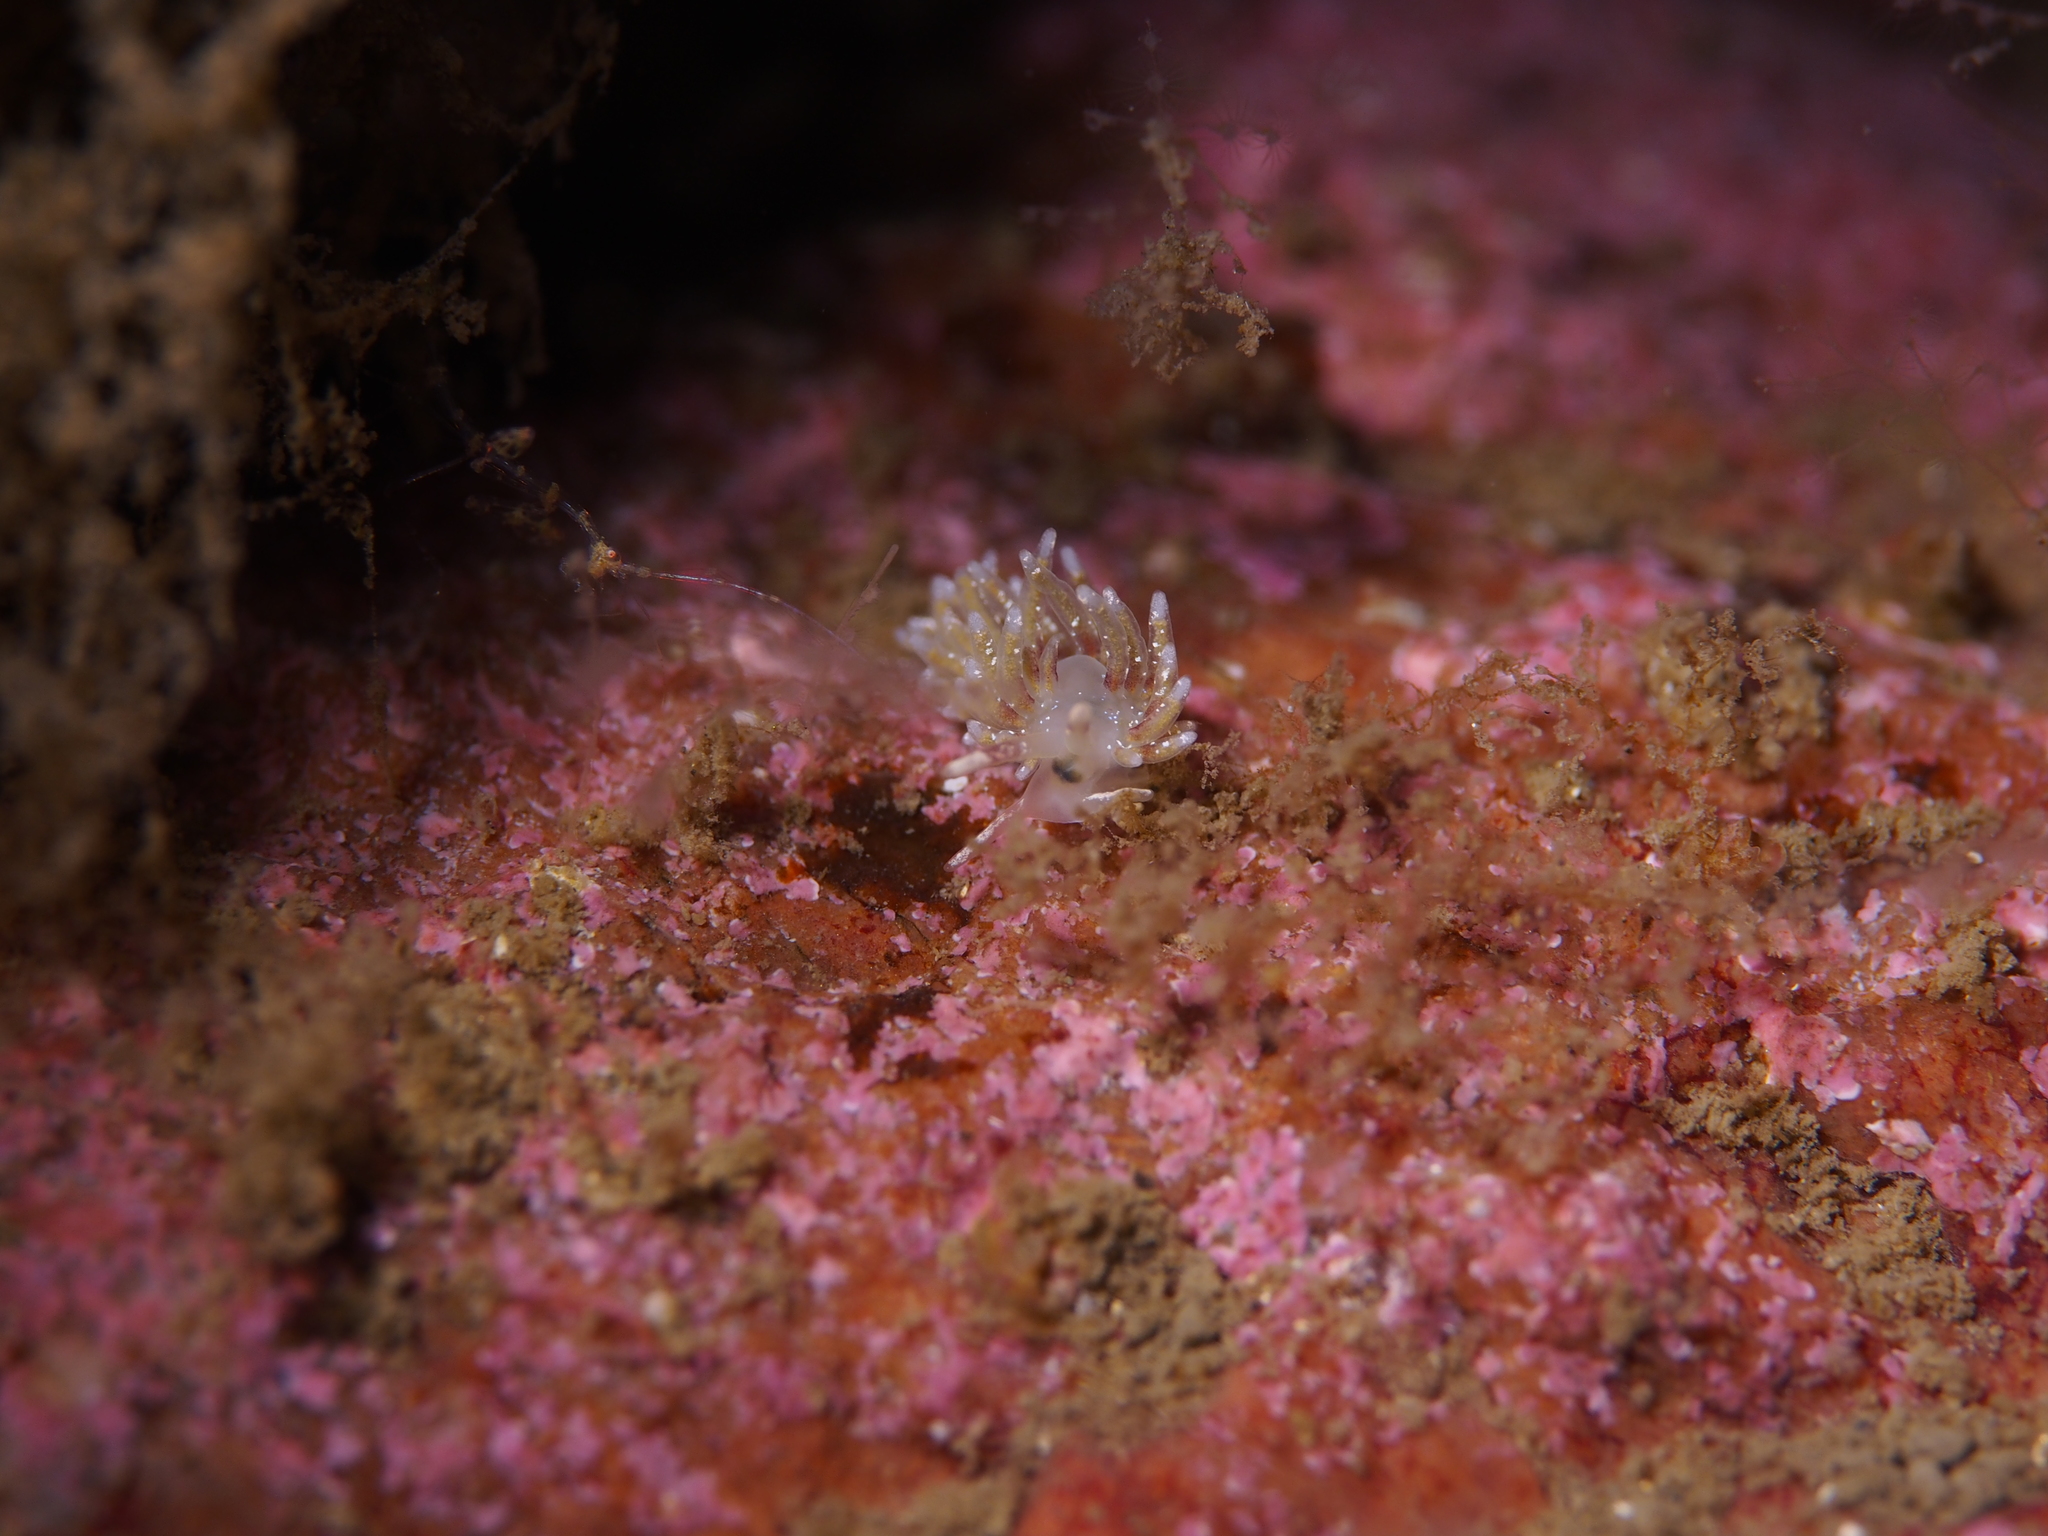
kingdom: Animalia
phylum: Mollusca
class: Gastropoda
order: Nudibranchia
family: Trinchesiidae
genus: Rubramoena
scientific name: Rubramoena rubescens
